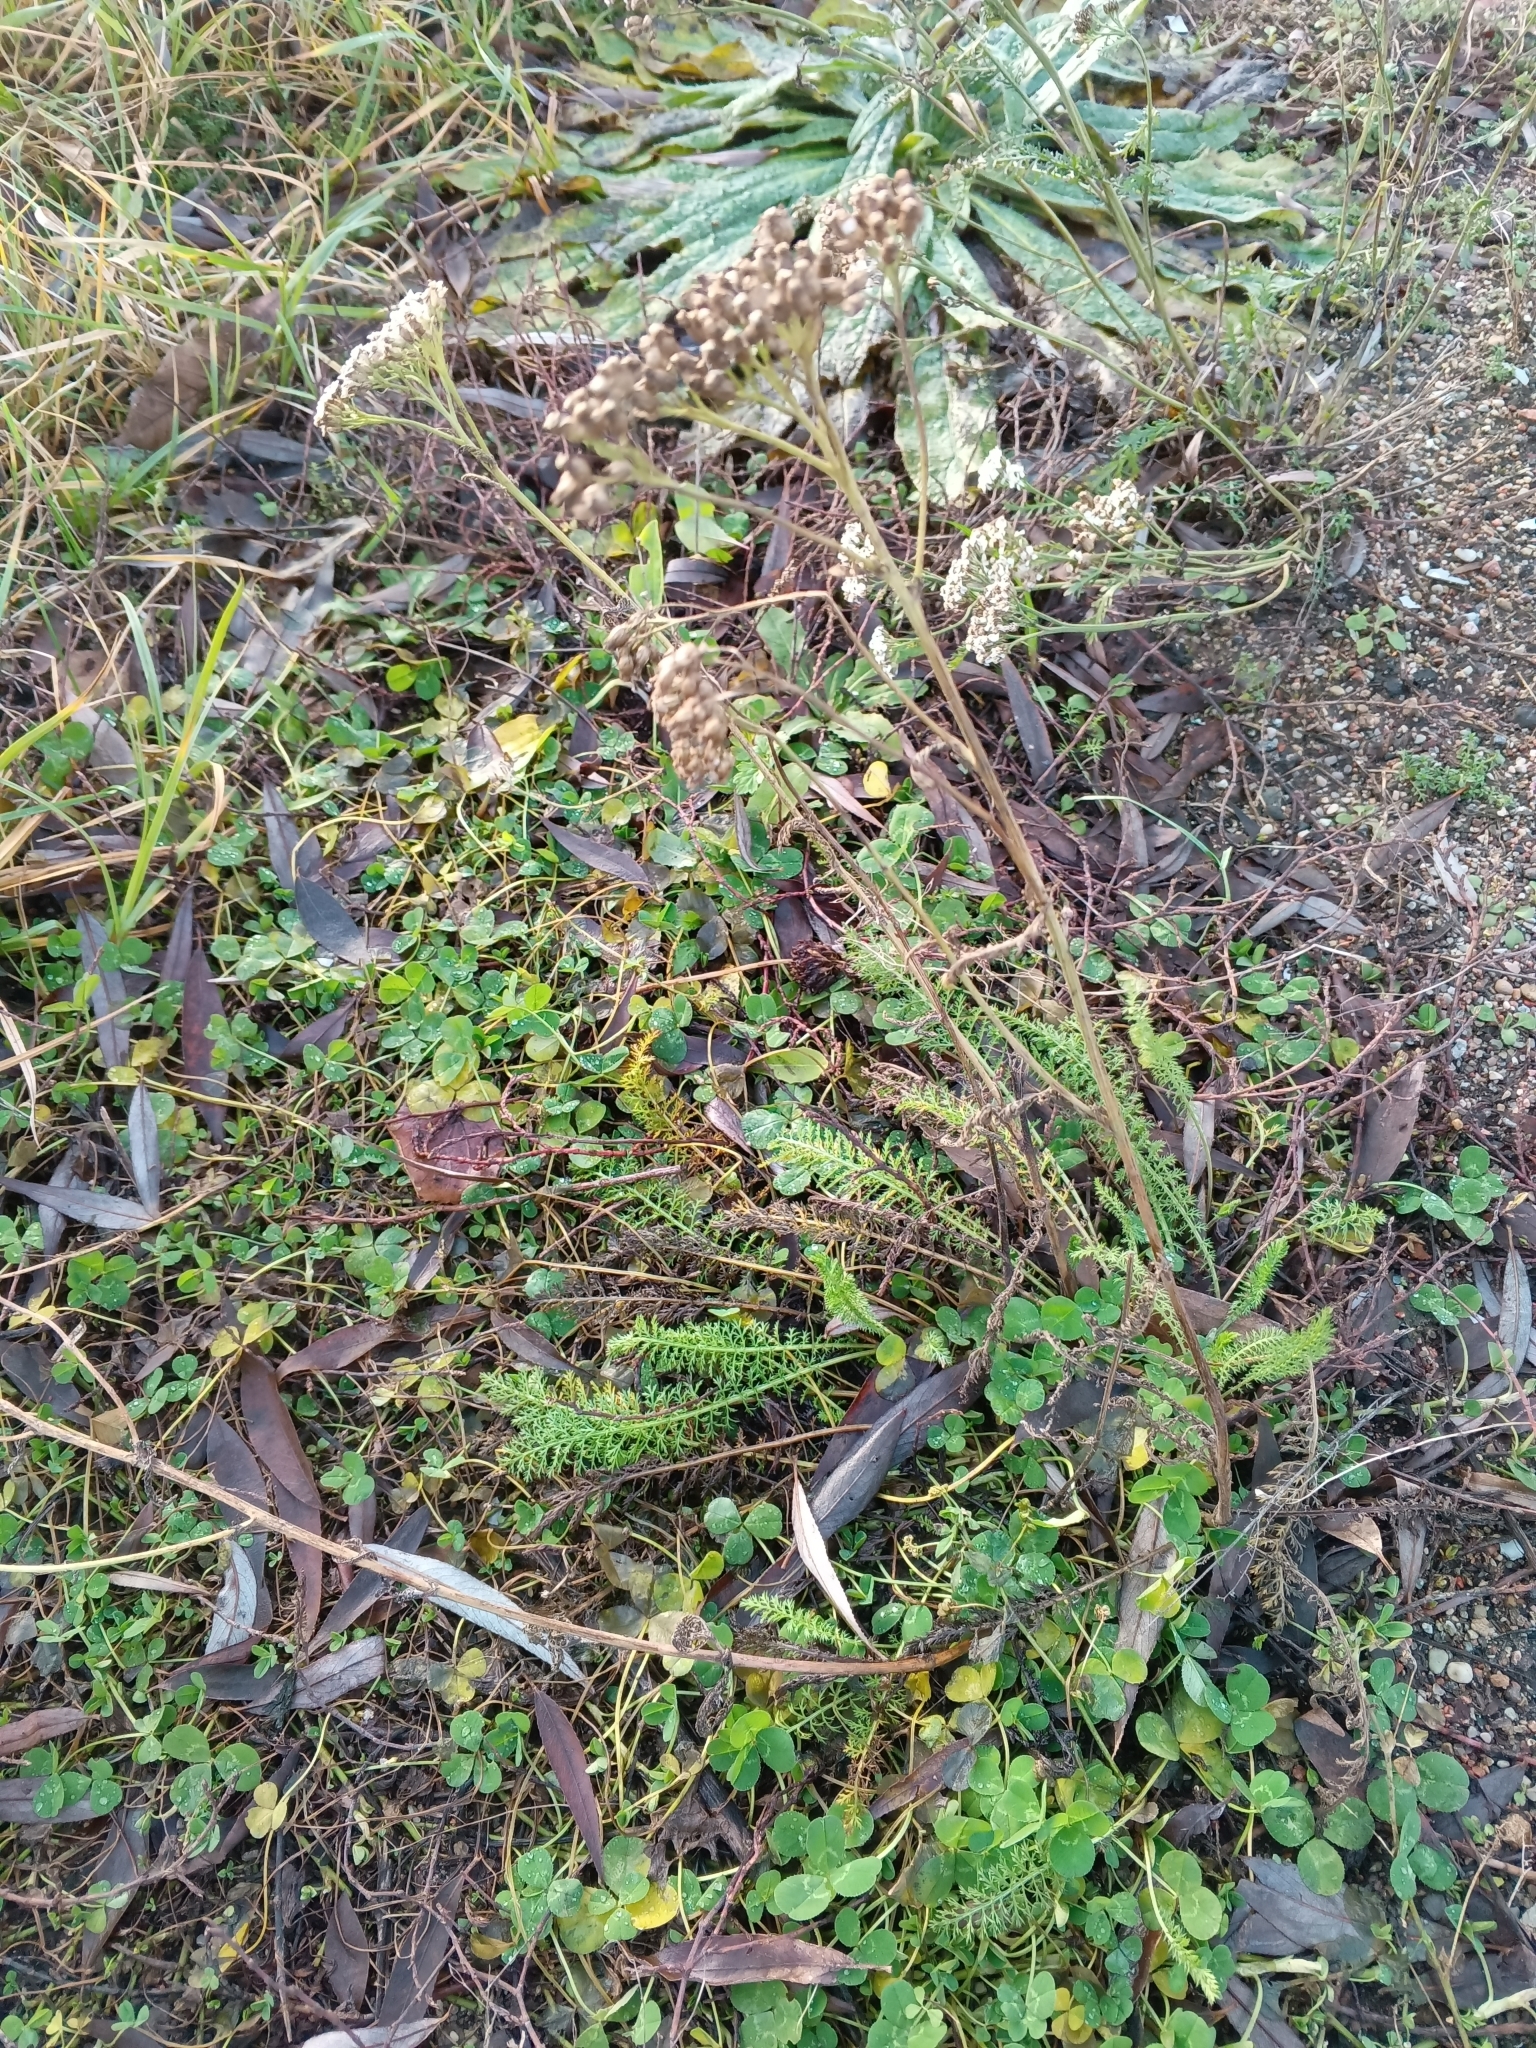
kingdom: Plantae
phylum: Tracheophyta
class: Magnoliopsida
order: Asterales
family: Asteraceae
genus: Achillea
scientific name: Achillea millefolium
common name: Yarrow
